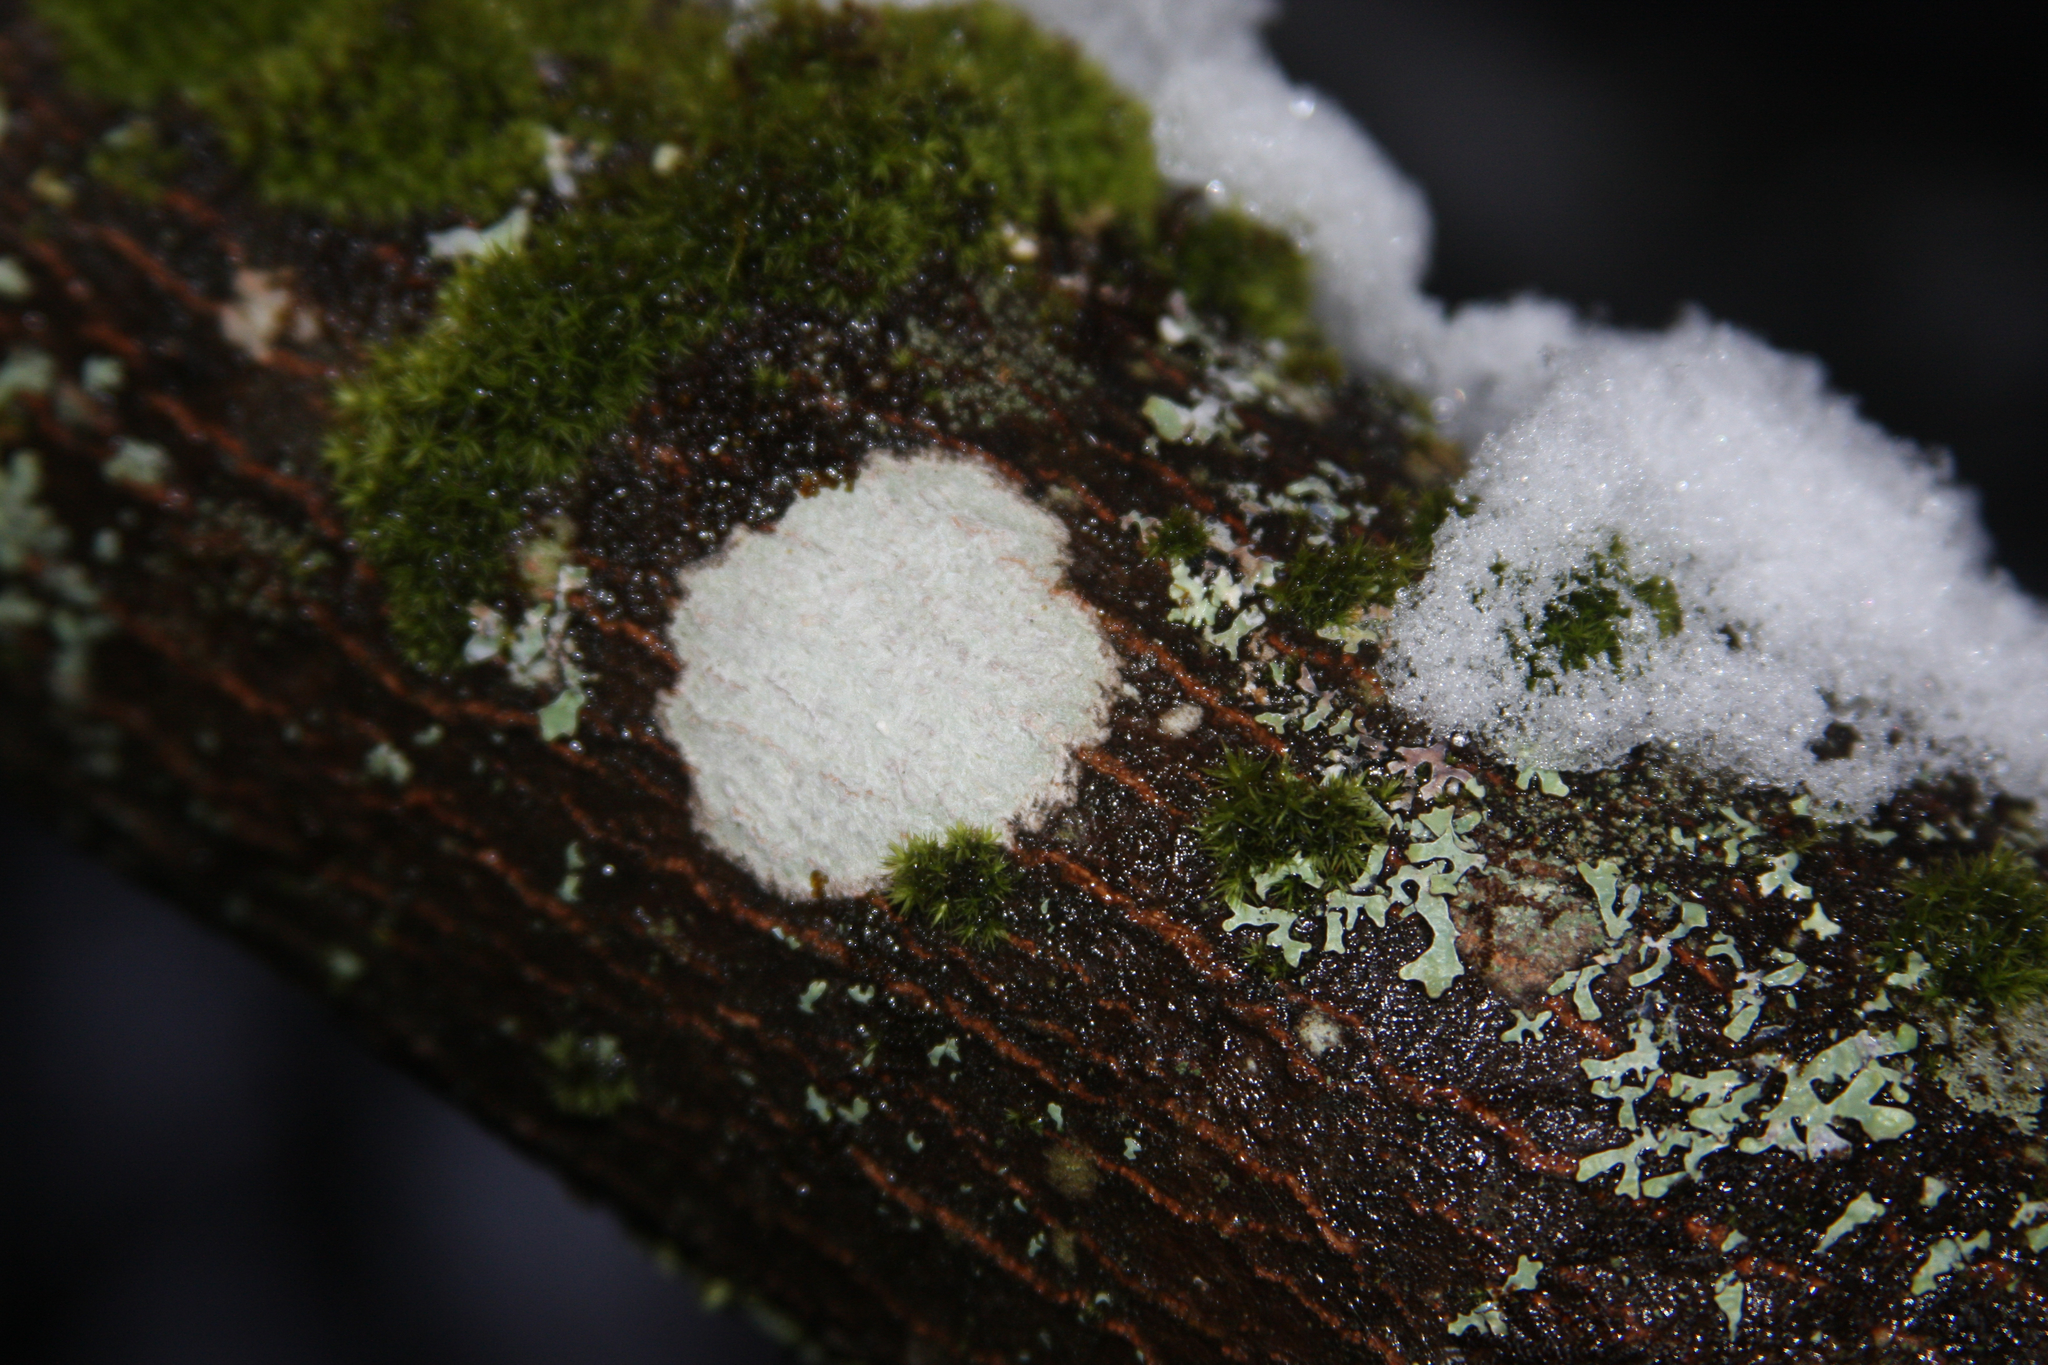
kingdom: Plantae
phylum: Bryophyta
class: Bryopsida
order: Orthotrichales
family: Orthotrichaceae
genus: Ulota
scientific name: Ulota crispa
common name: Crisped pincushion moss
